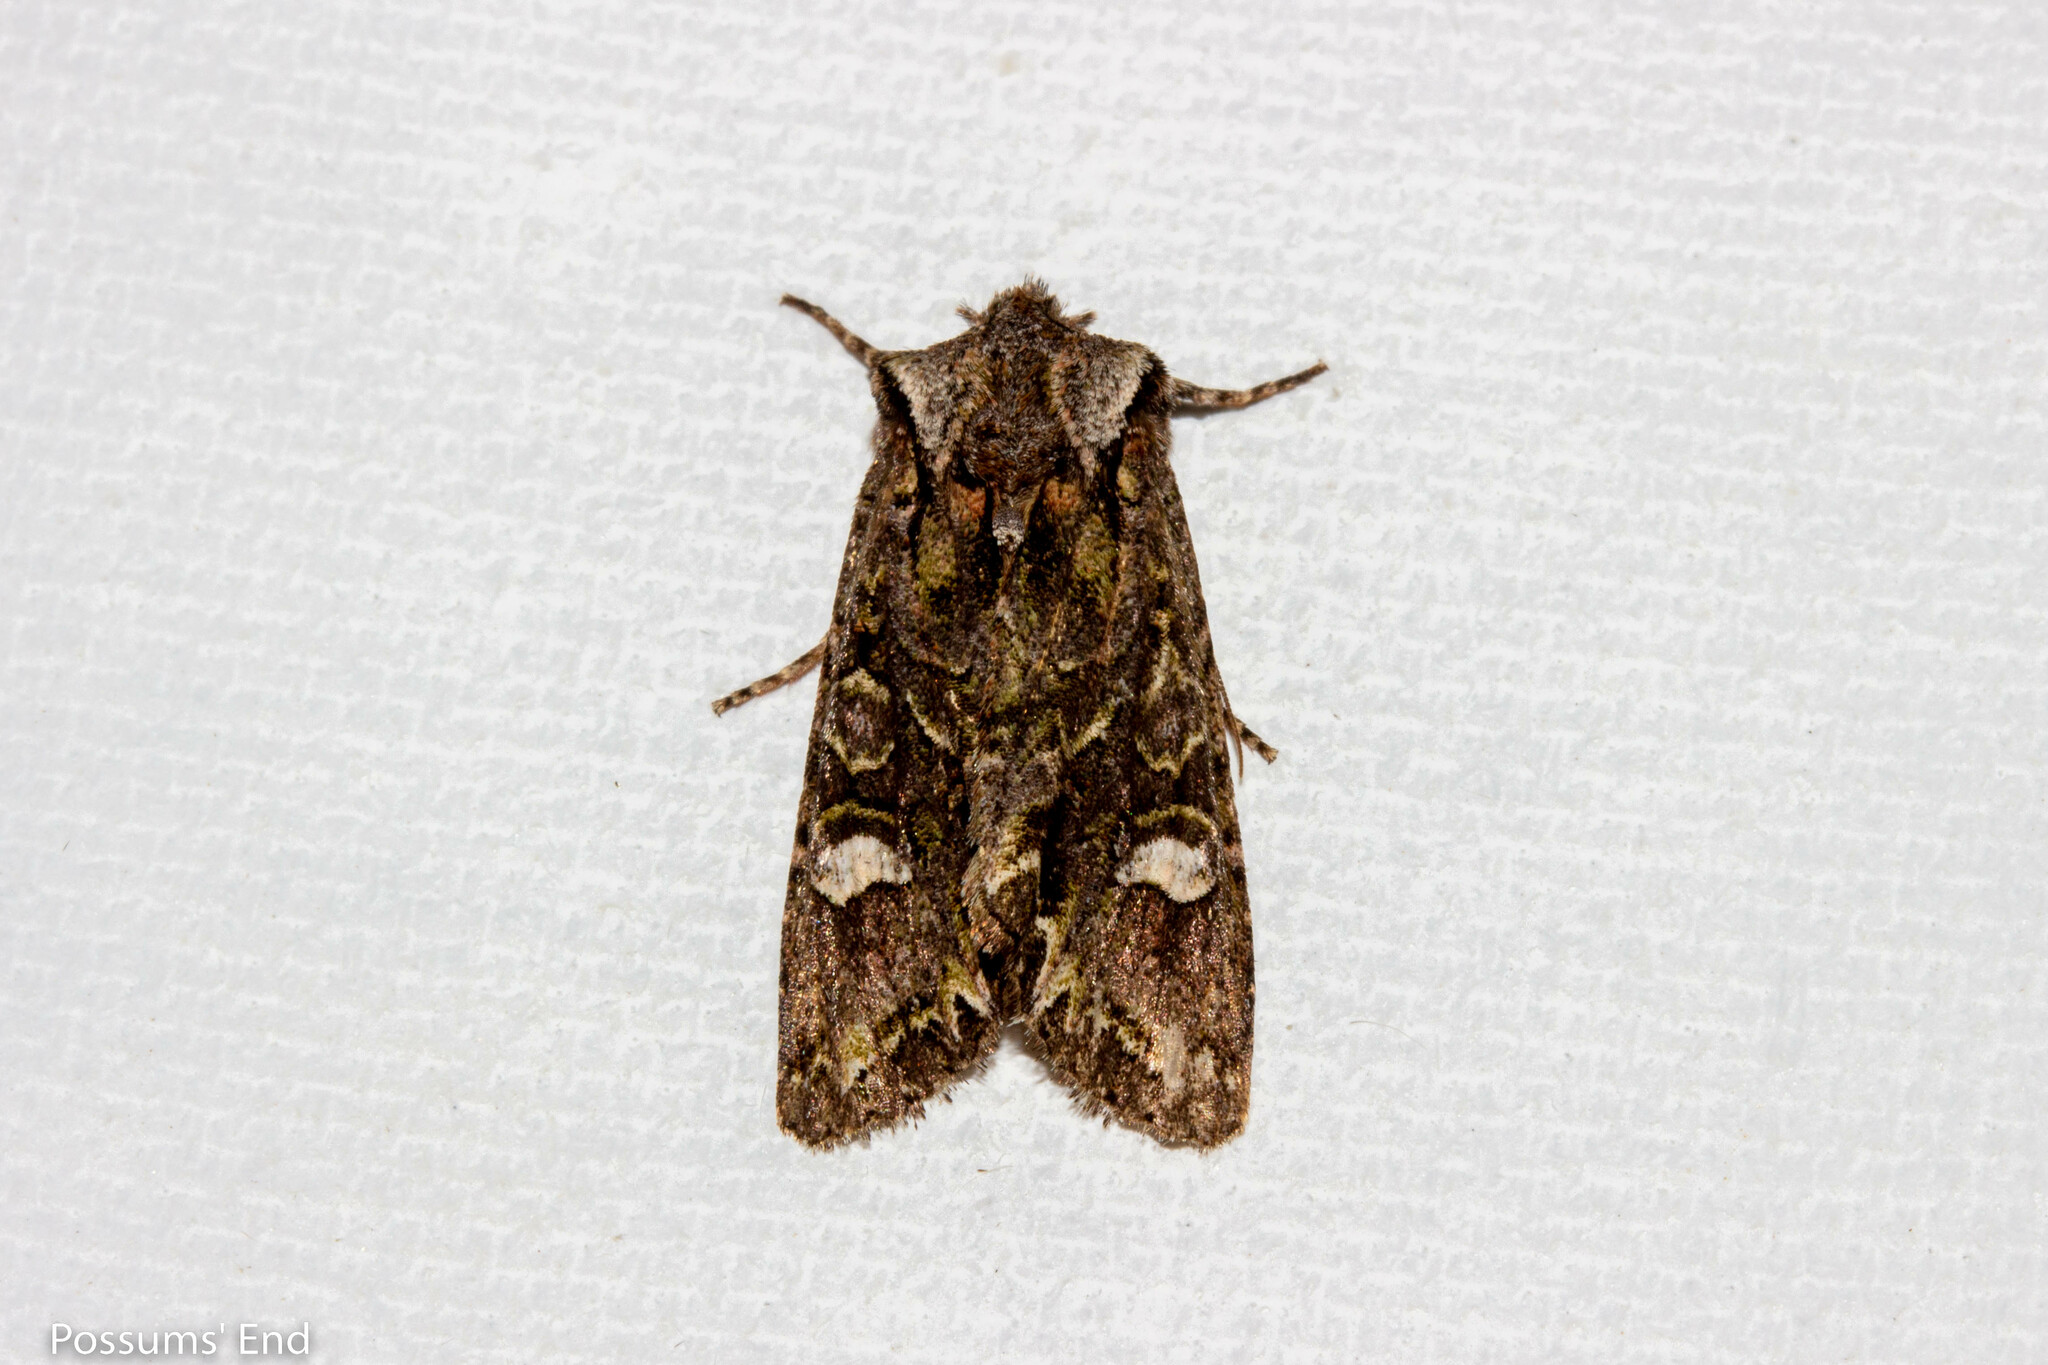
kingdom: Animalia
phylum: Arthropoda
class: Insecta
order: Lepidoptera
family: Noctuidae
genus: Ichneutica
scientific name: Ichneutica insignis
